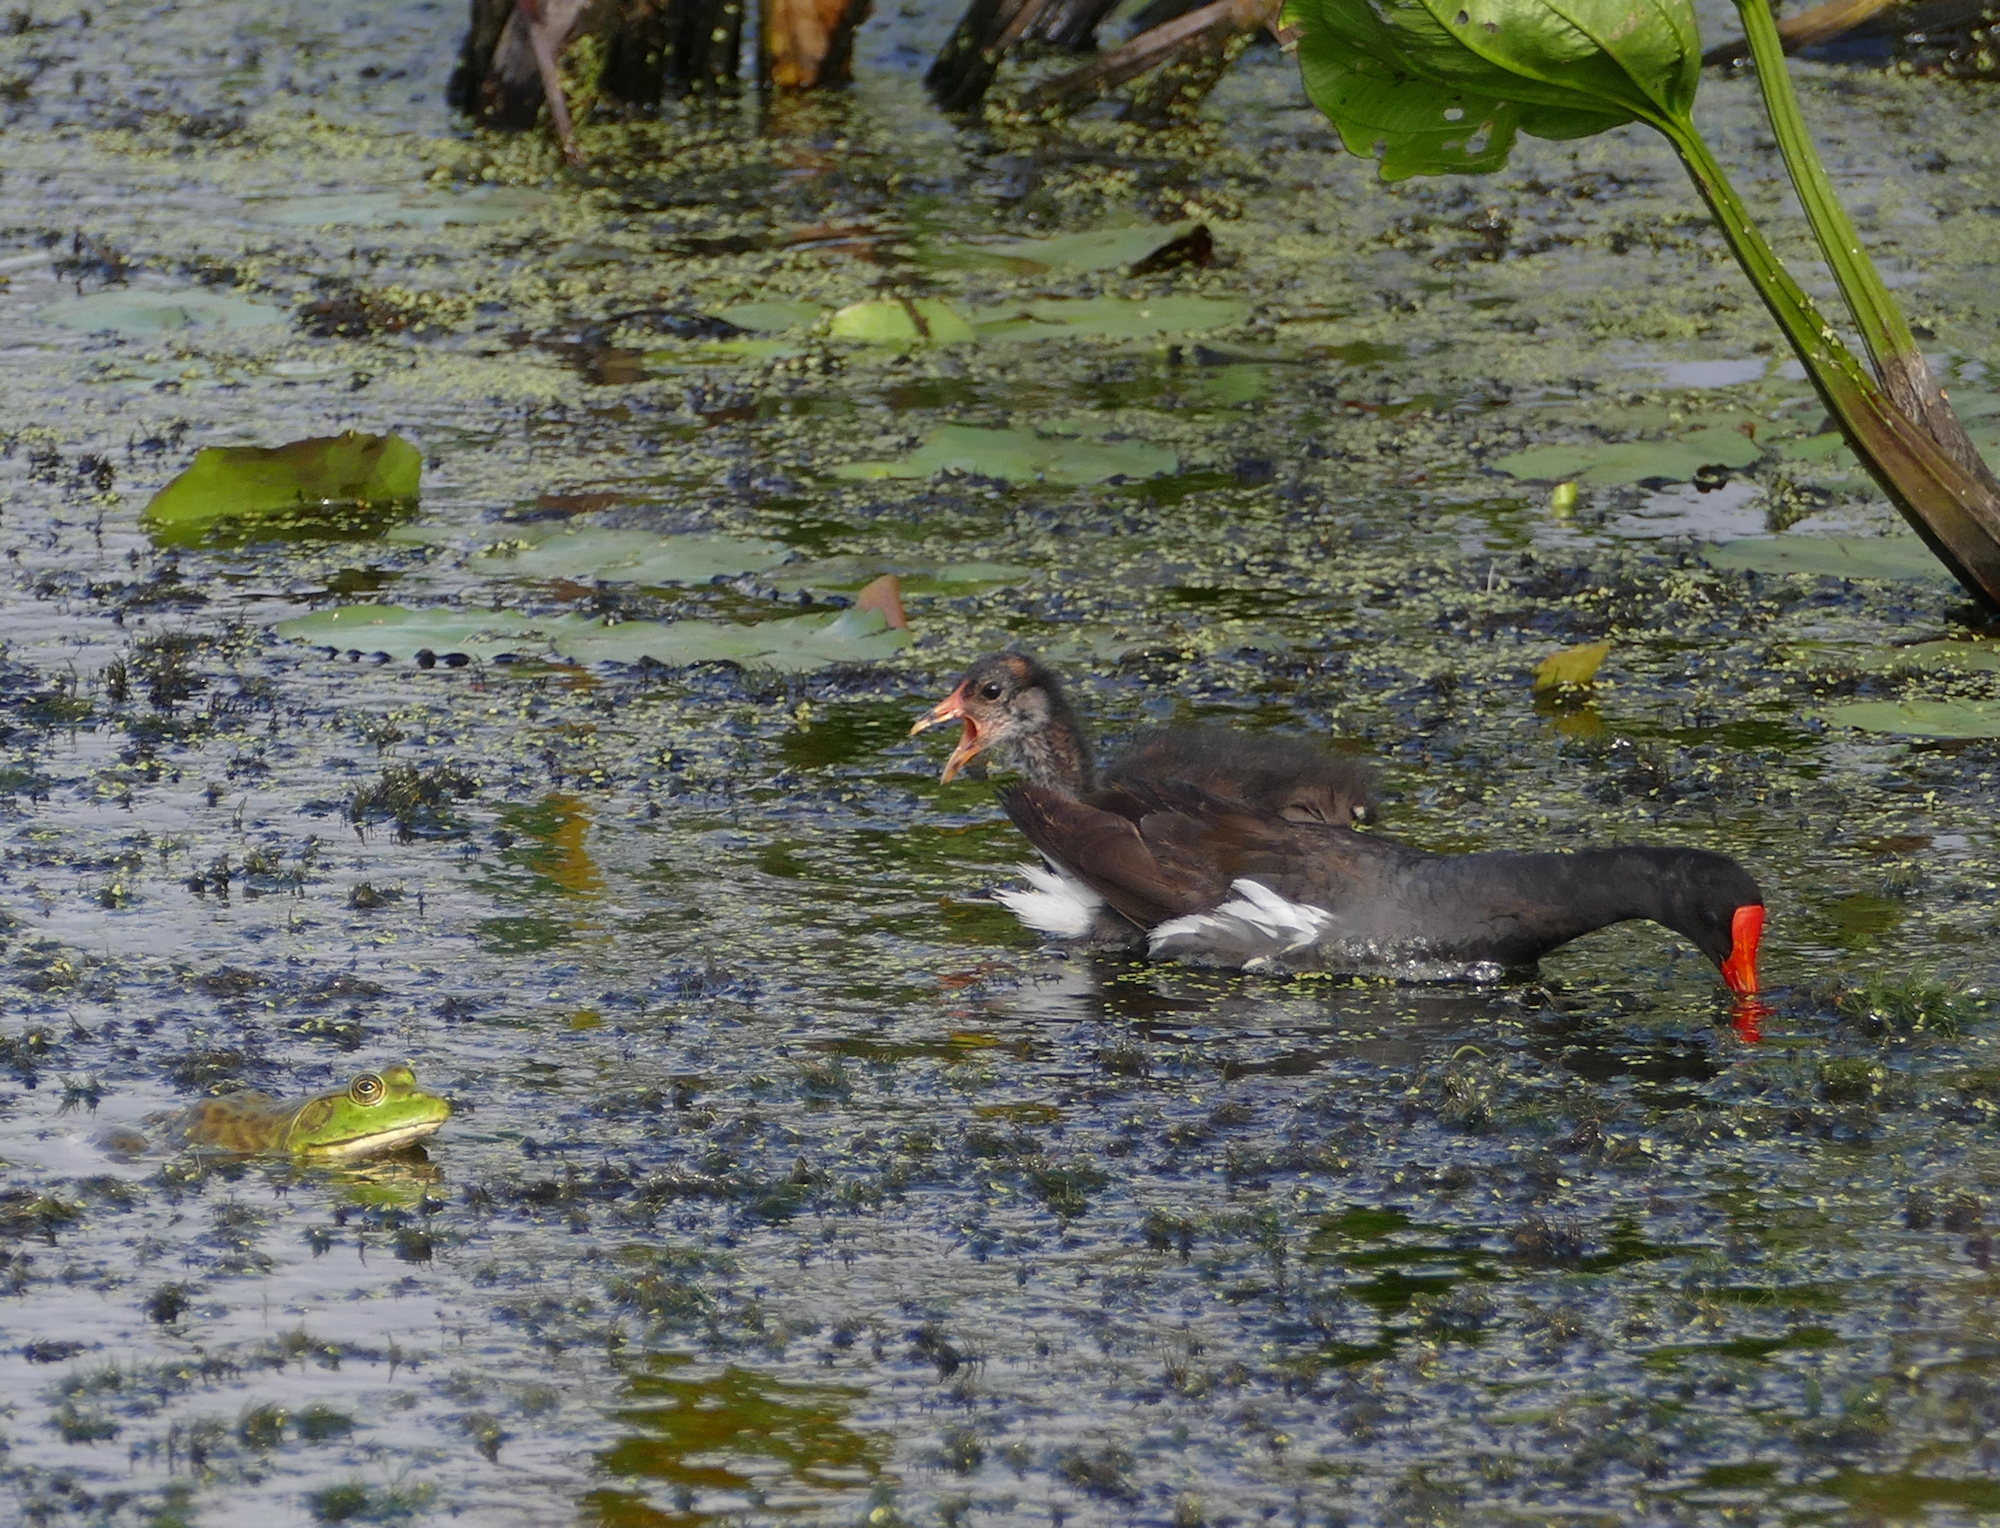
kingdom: Animalia
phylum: Chordata
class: Aves
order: Gruiformes
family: Rallidae
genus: Gallinula
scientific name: Gallinula chloropus
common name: Common moorhen
